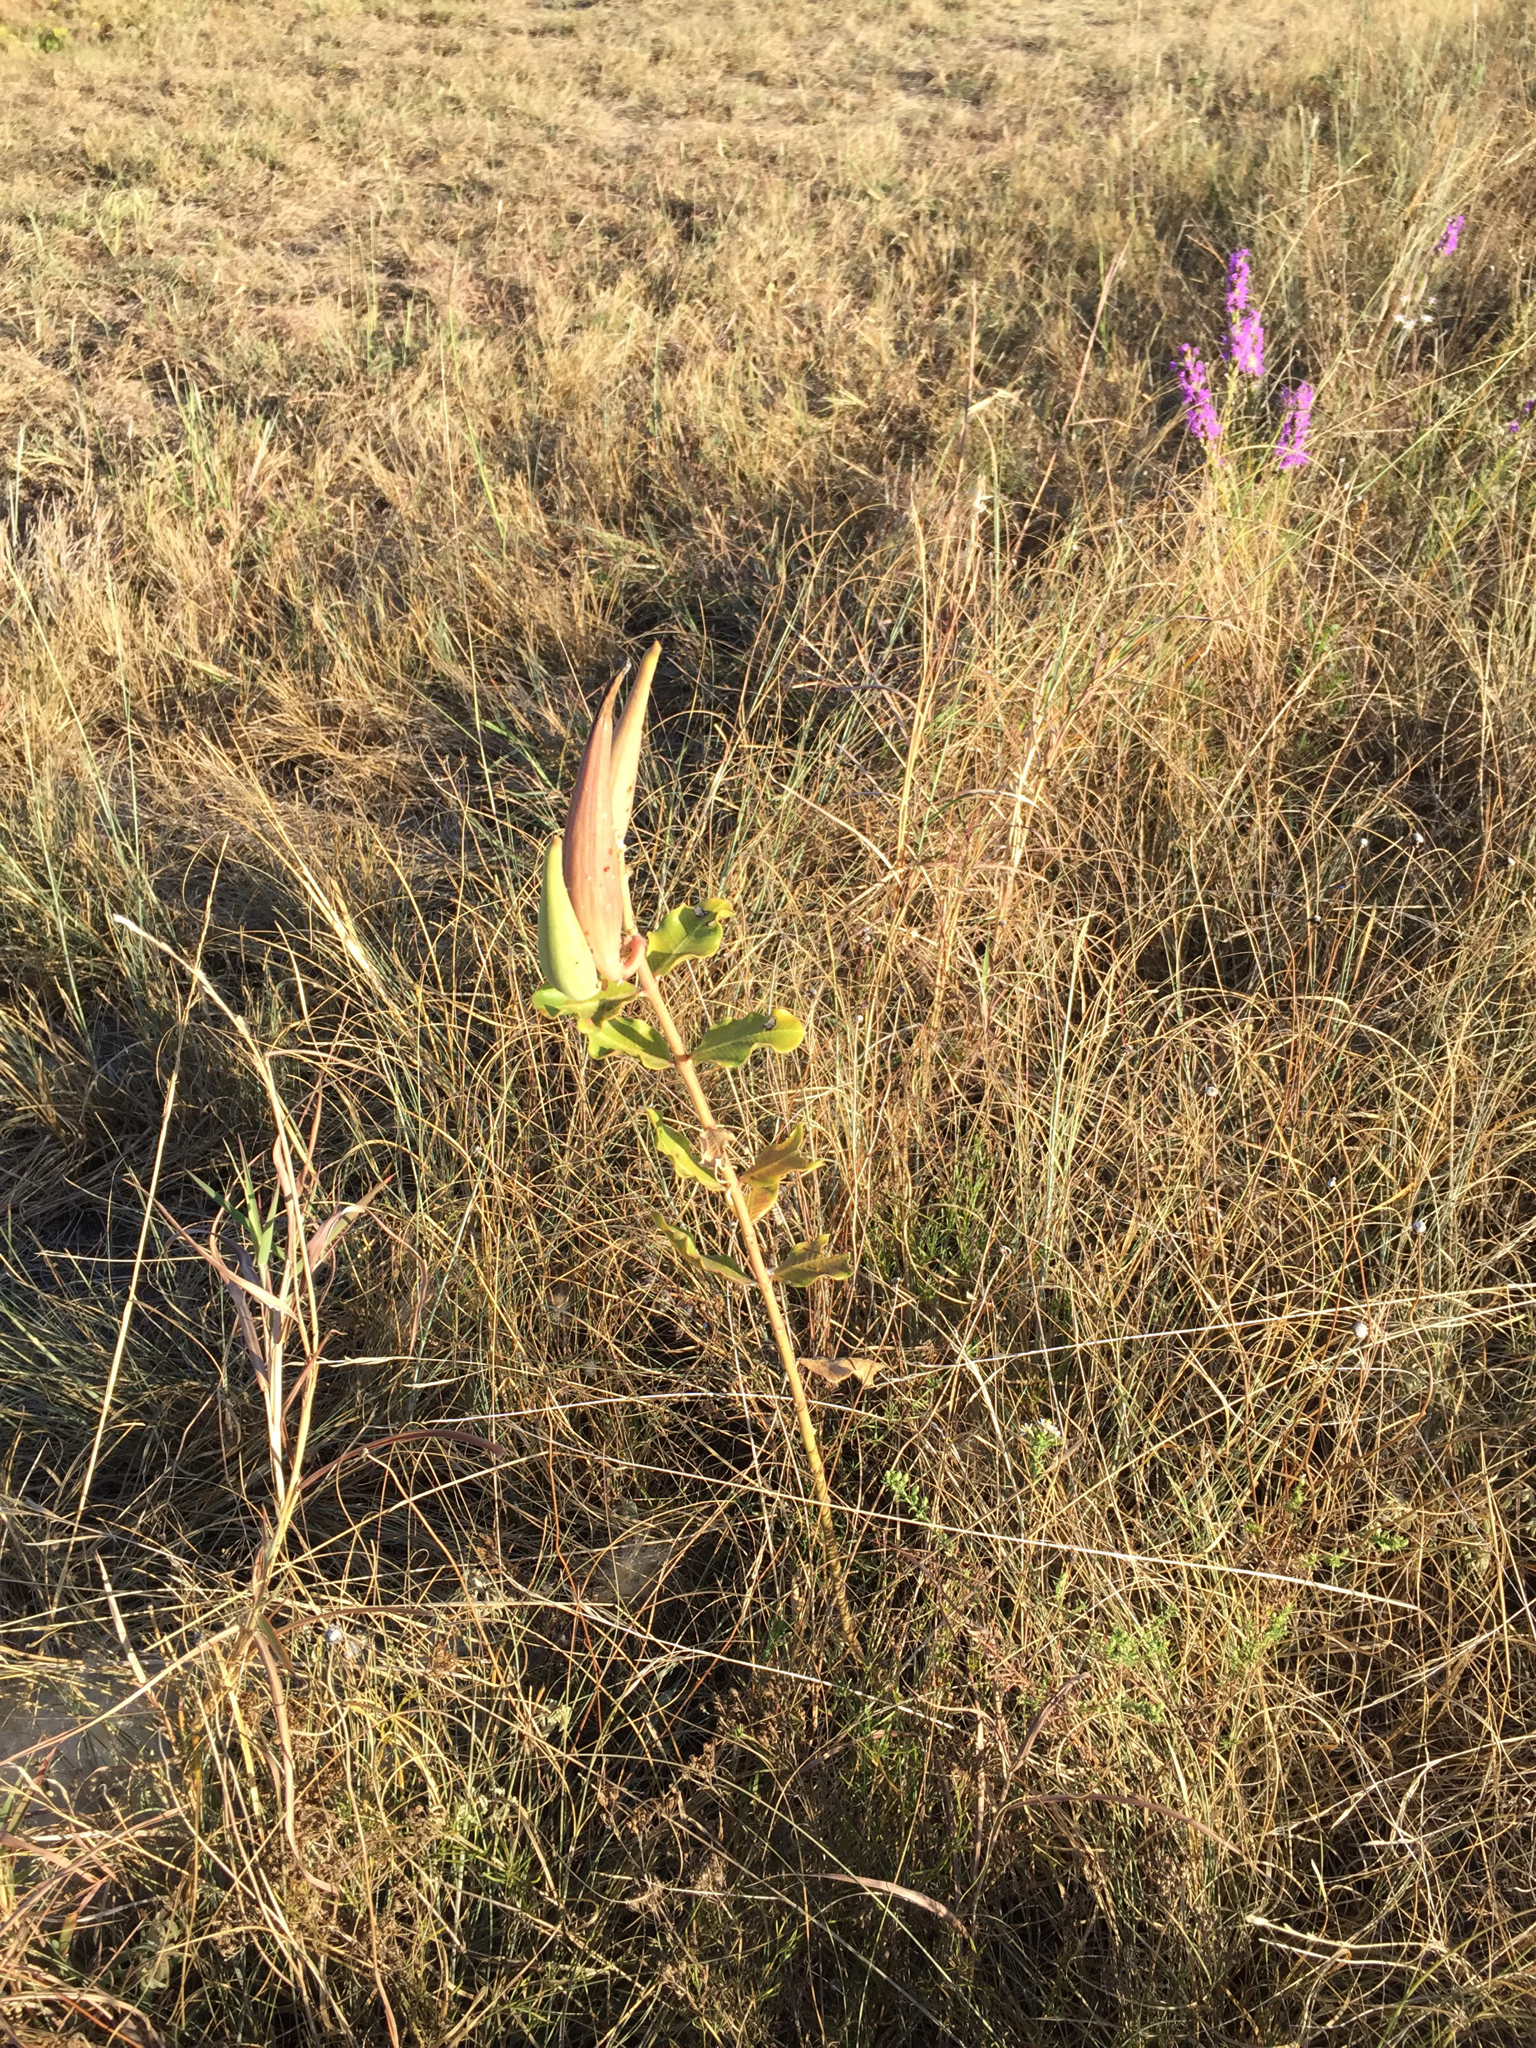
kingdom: Plantae
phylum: Tracheophyta
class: Magnoliopsida
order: Gentianales
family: Apocynaceae
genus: Asclepias
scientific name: Asclepias viridiflora
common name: Green comet milkweed
